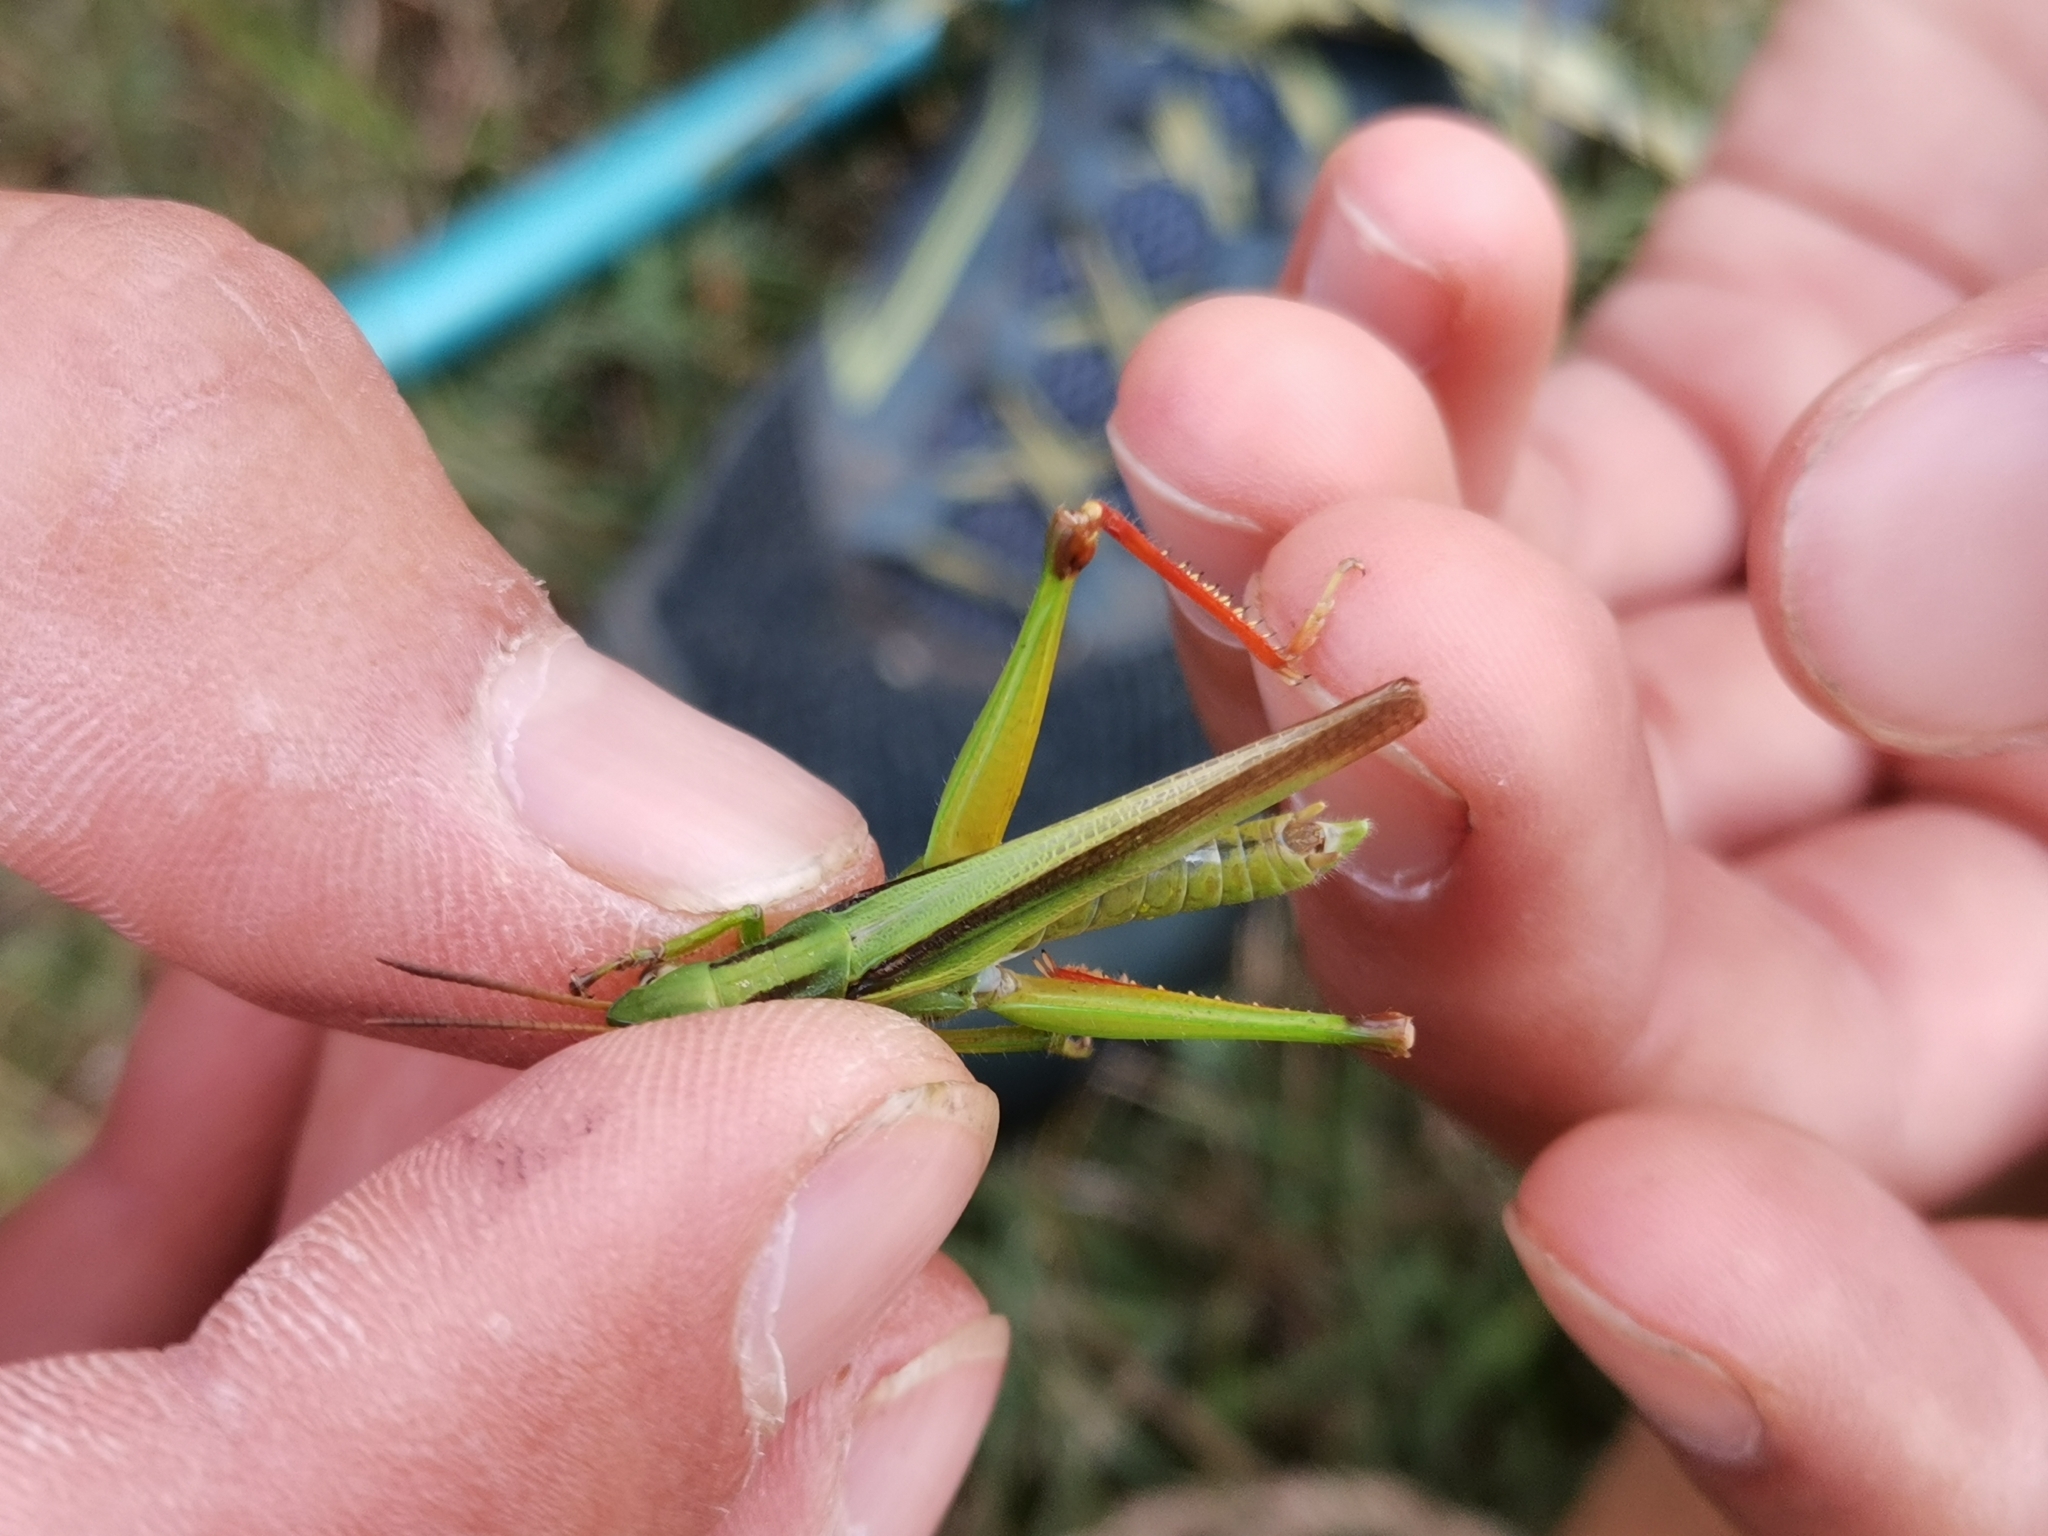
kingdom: Animalia
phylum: Arthropoda
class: Insecta
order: Orthoptera
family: Acrididae
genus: Paracinema
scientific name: Paracinema tricolor
